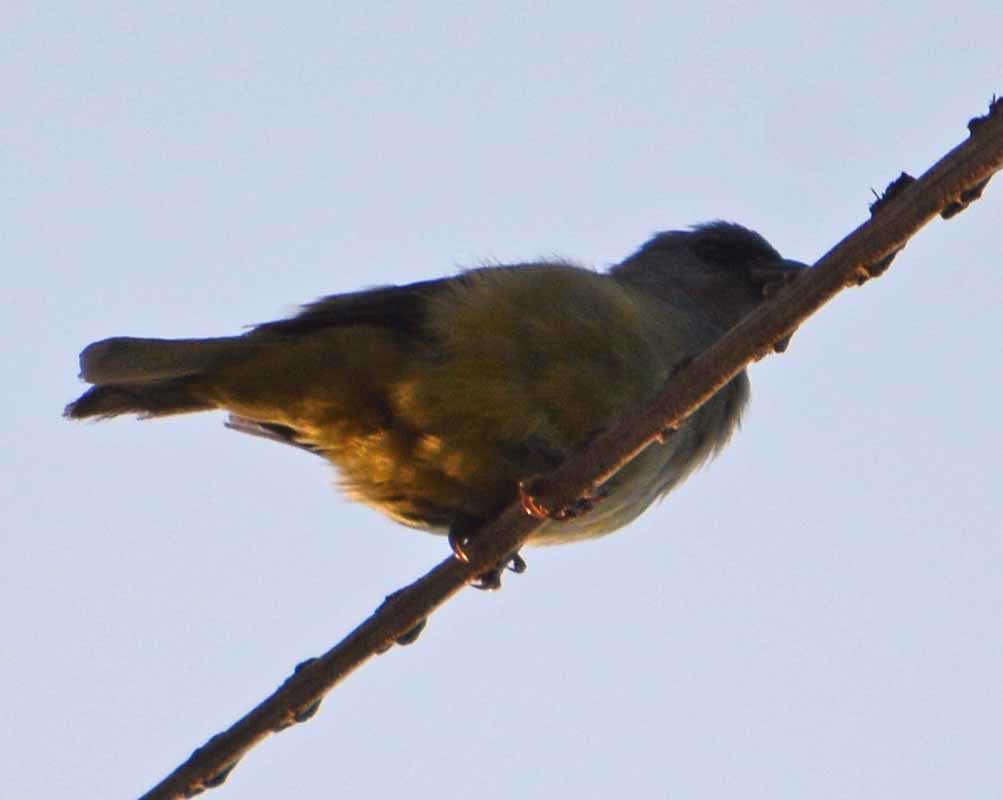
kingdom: Animalia
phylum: Chordata
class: Aves
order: Passeriformes
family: Thraupidae
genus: Thraupis
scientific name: Thraupis abbas
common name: Yellow-winged tanager
